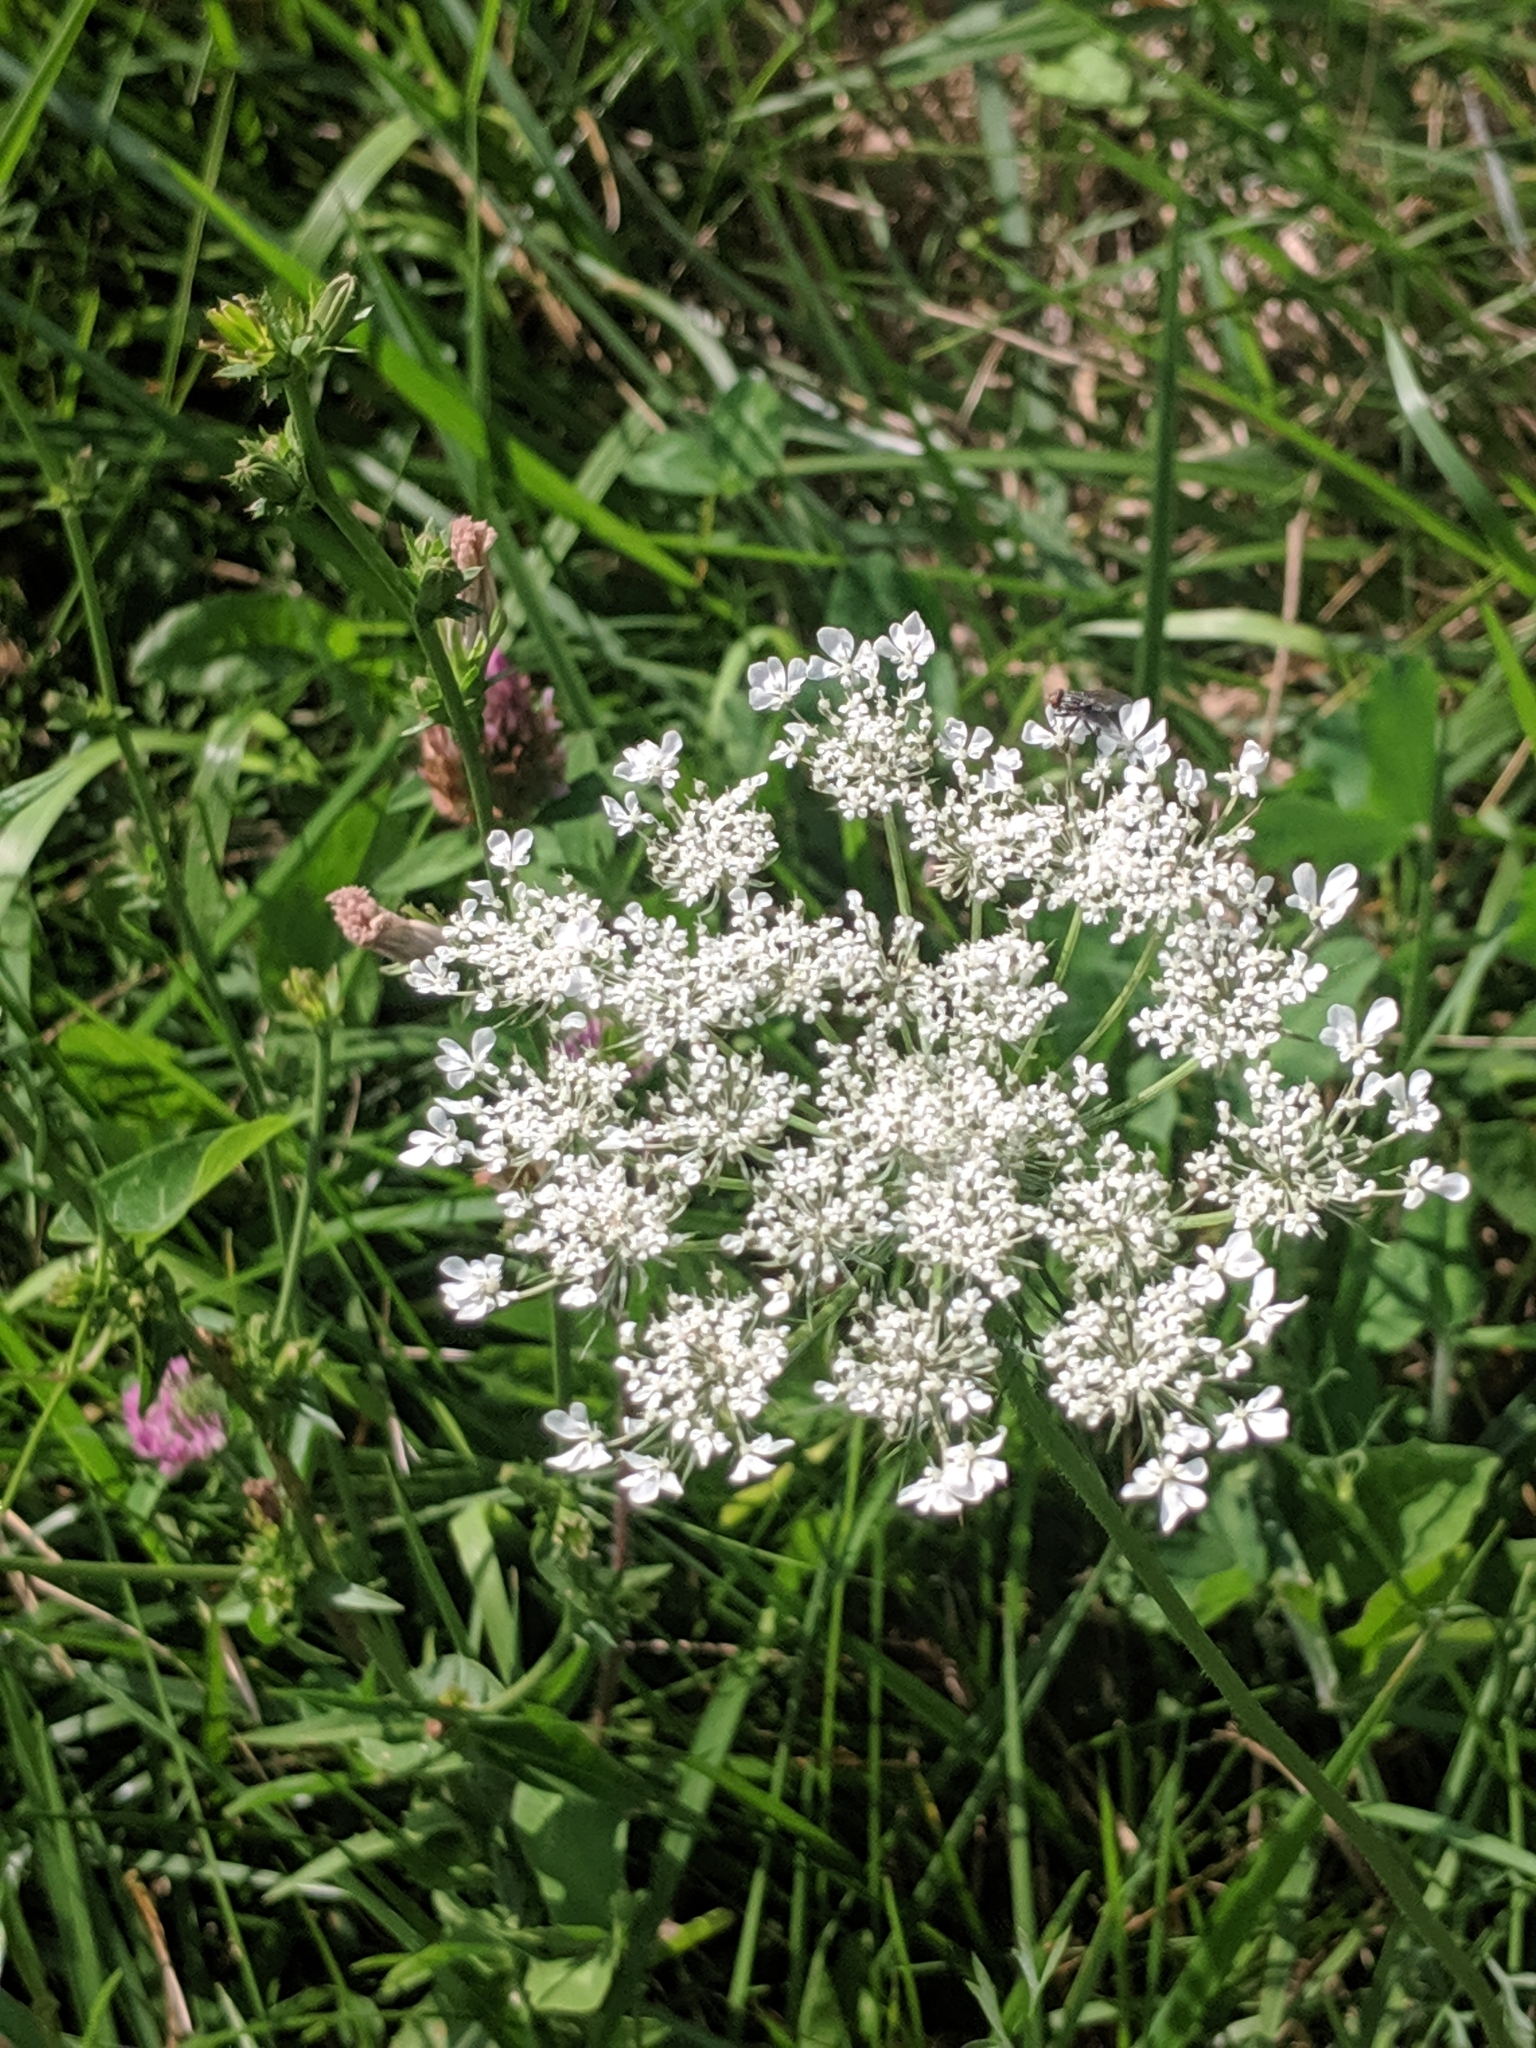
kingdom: Plantae
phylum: Tracheophyta
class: Magnoliopsida
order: Apiales
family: Apiaceae
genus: Daucus
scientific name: Daucus carota
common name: Wild carrot
